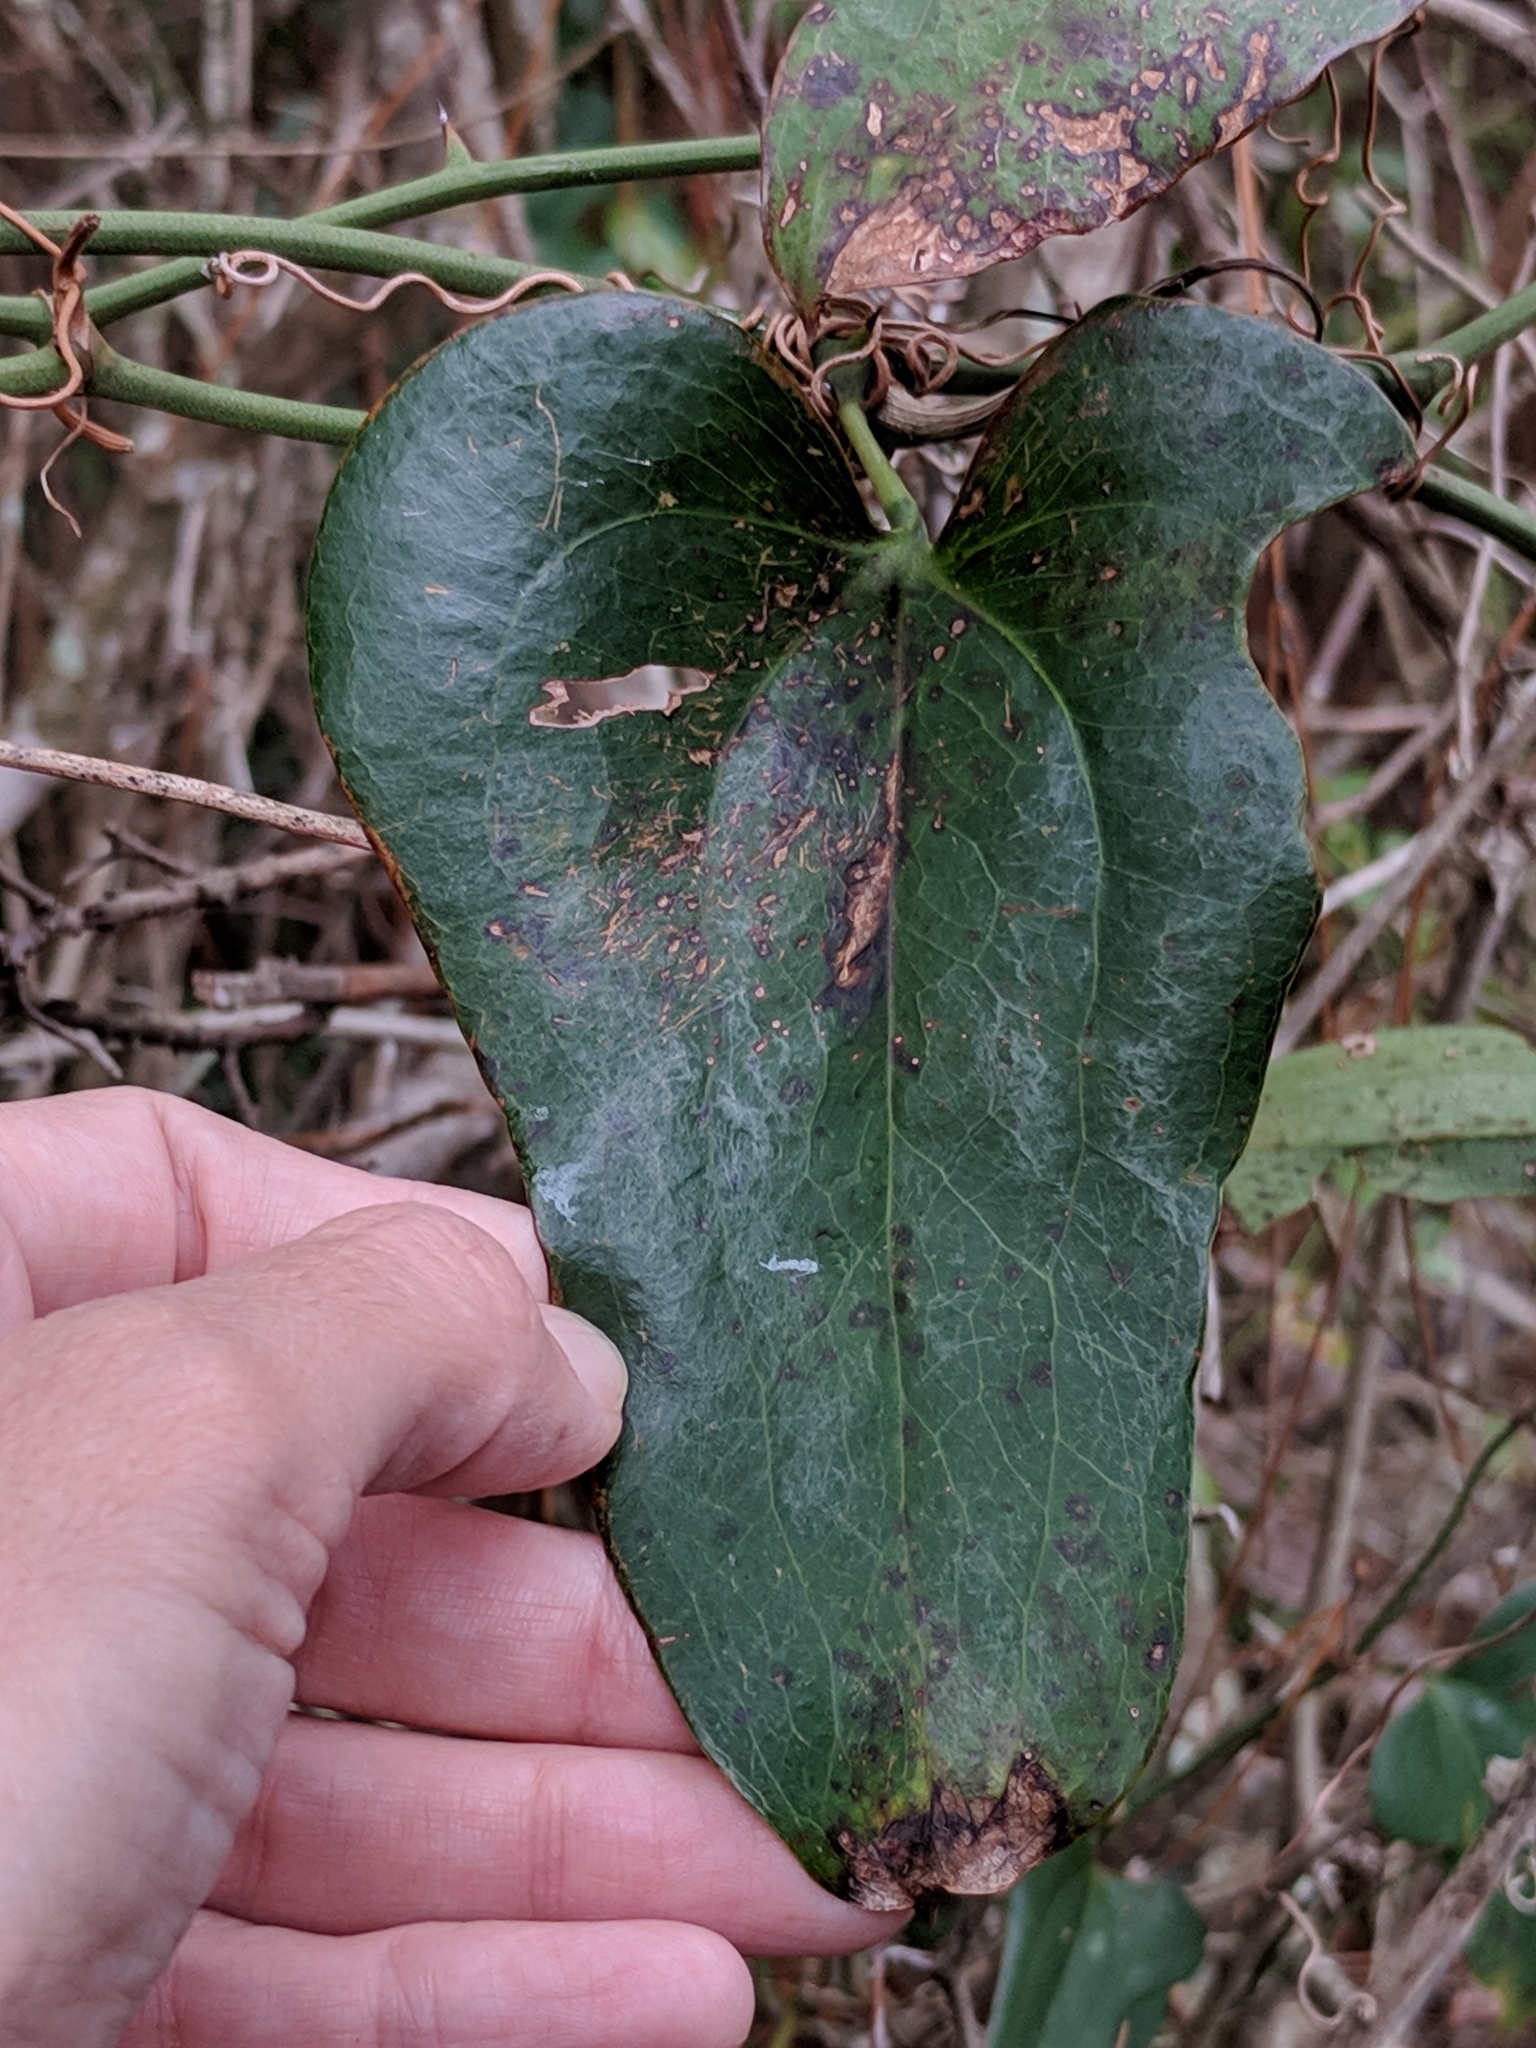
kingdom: Plantae
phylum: Tracheophyta
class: Liliopsida
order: Liliales
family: Smilacaceae
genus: Smilax
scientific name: Smilax bona-nox
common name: Catbrier
